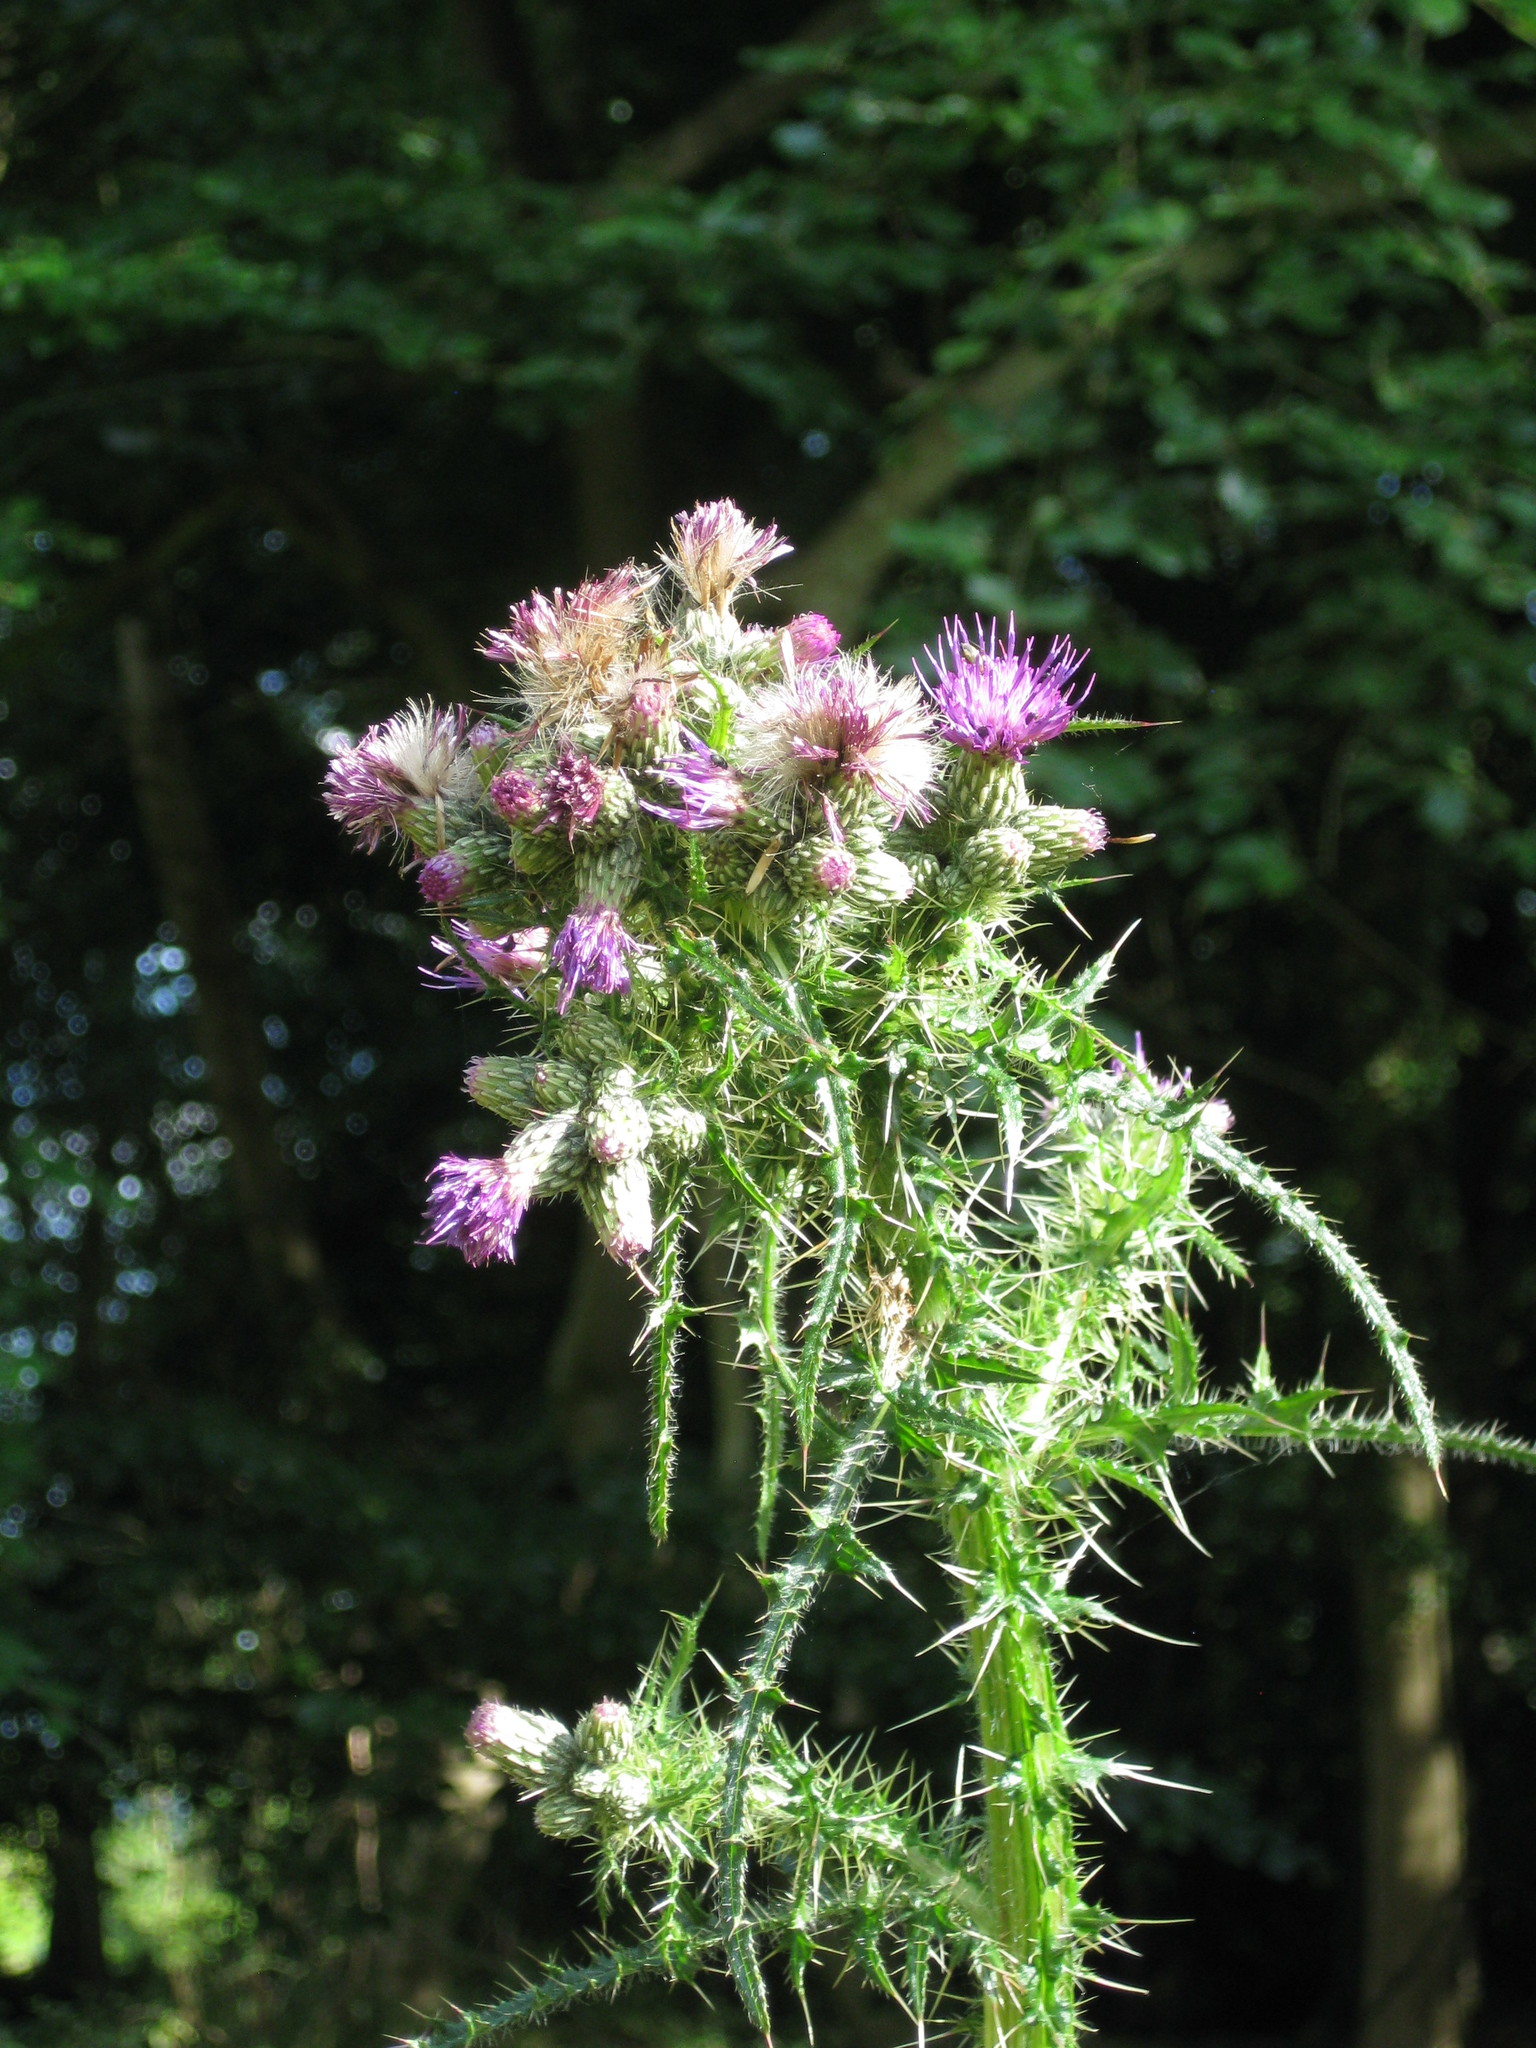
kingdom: Plantae
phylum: Tracheophyta
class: Magnoliopsida
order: Asterales
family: Asteraceae
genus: Cirsium
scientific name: Cirsium palustre
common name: Marsh thistle
